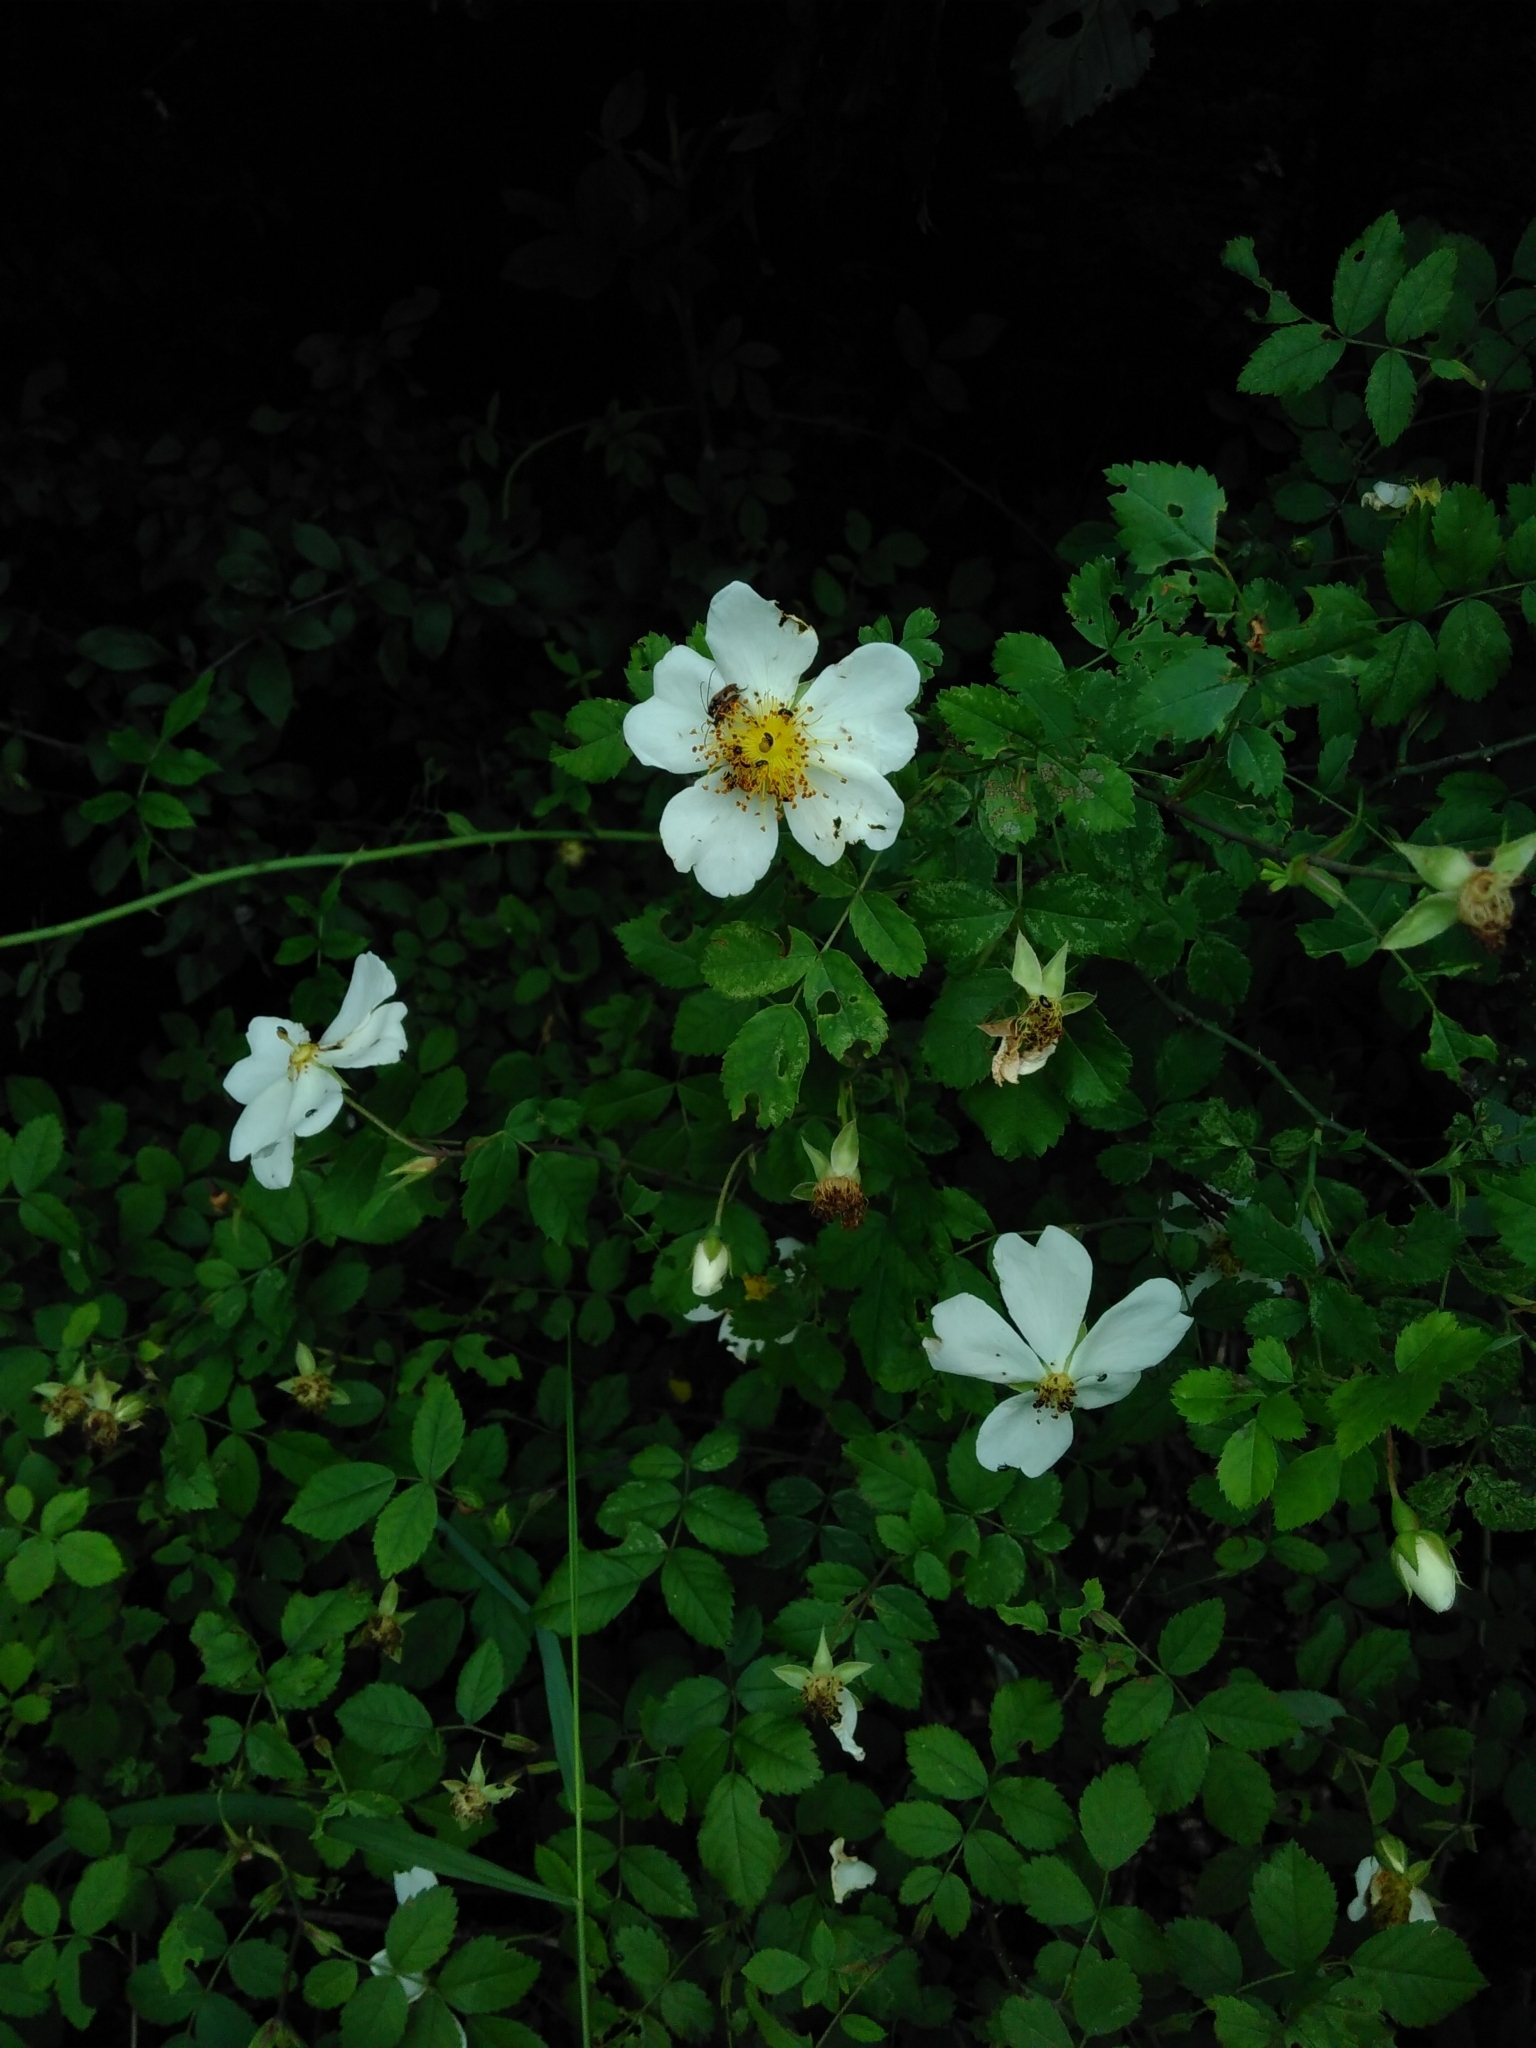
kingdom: Plantae
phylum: Tracheophyta
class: Magnoliopsida
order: Rosales
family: Rosaceae
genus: Rosa
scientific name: Rosa arvensis
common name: Field rose
